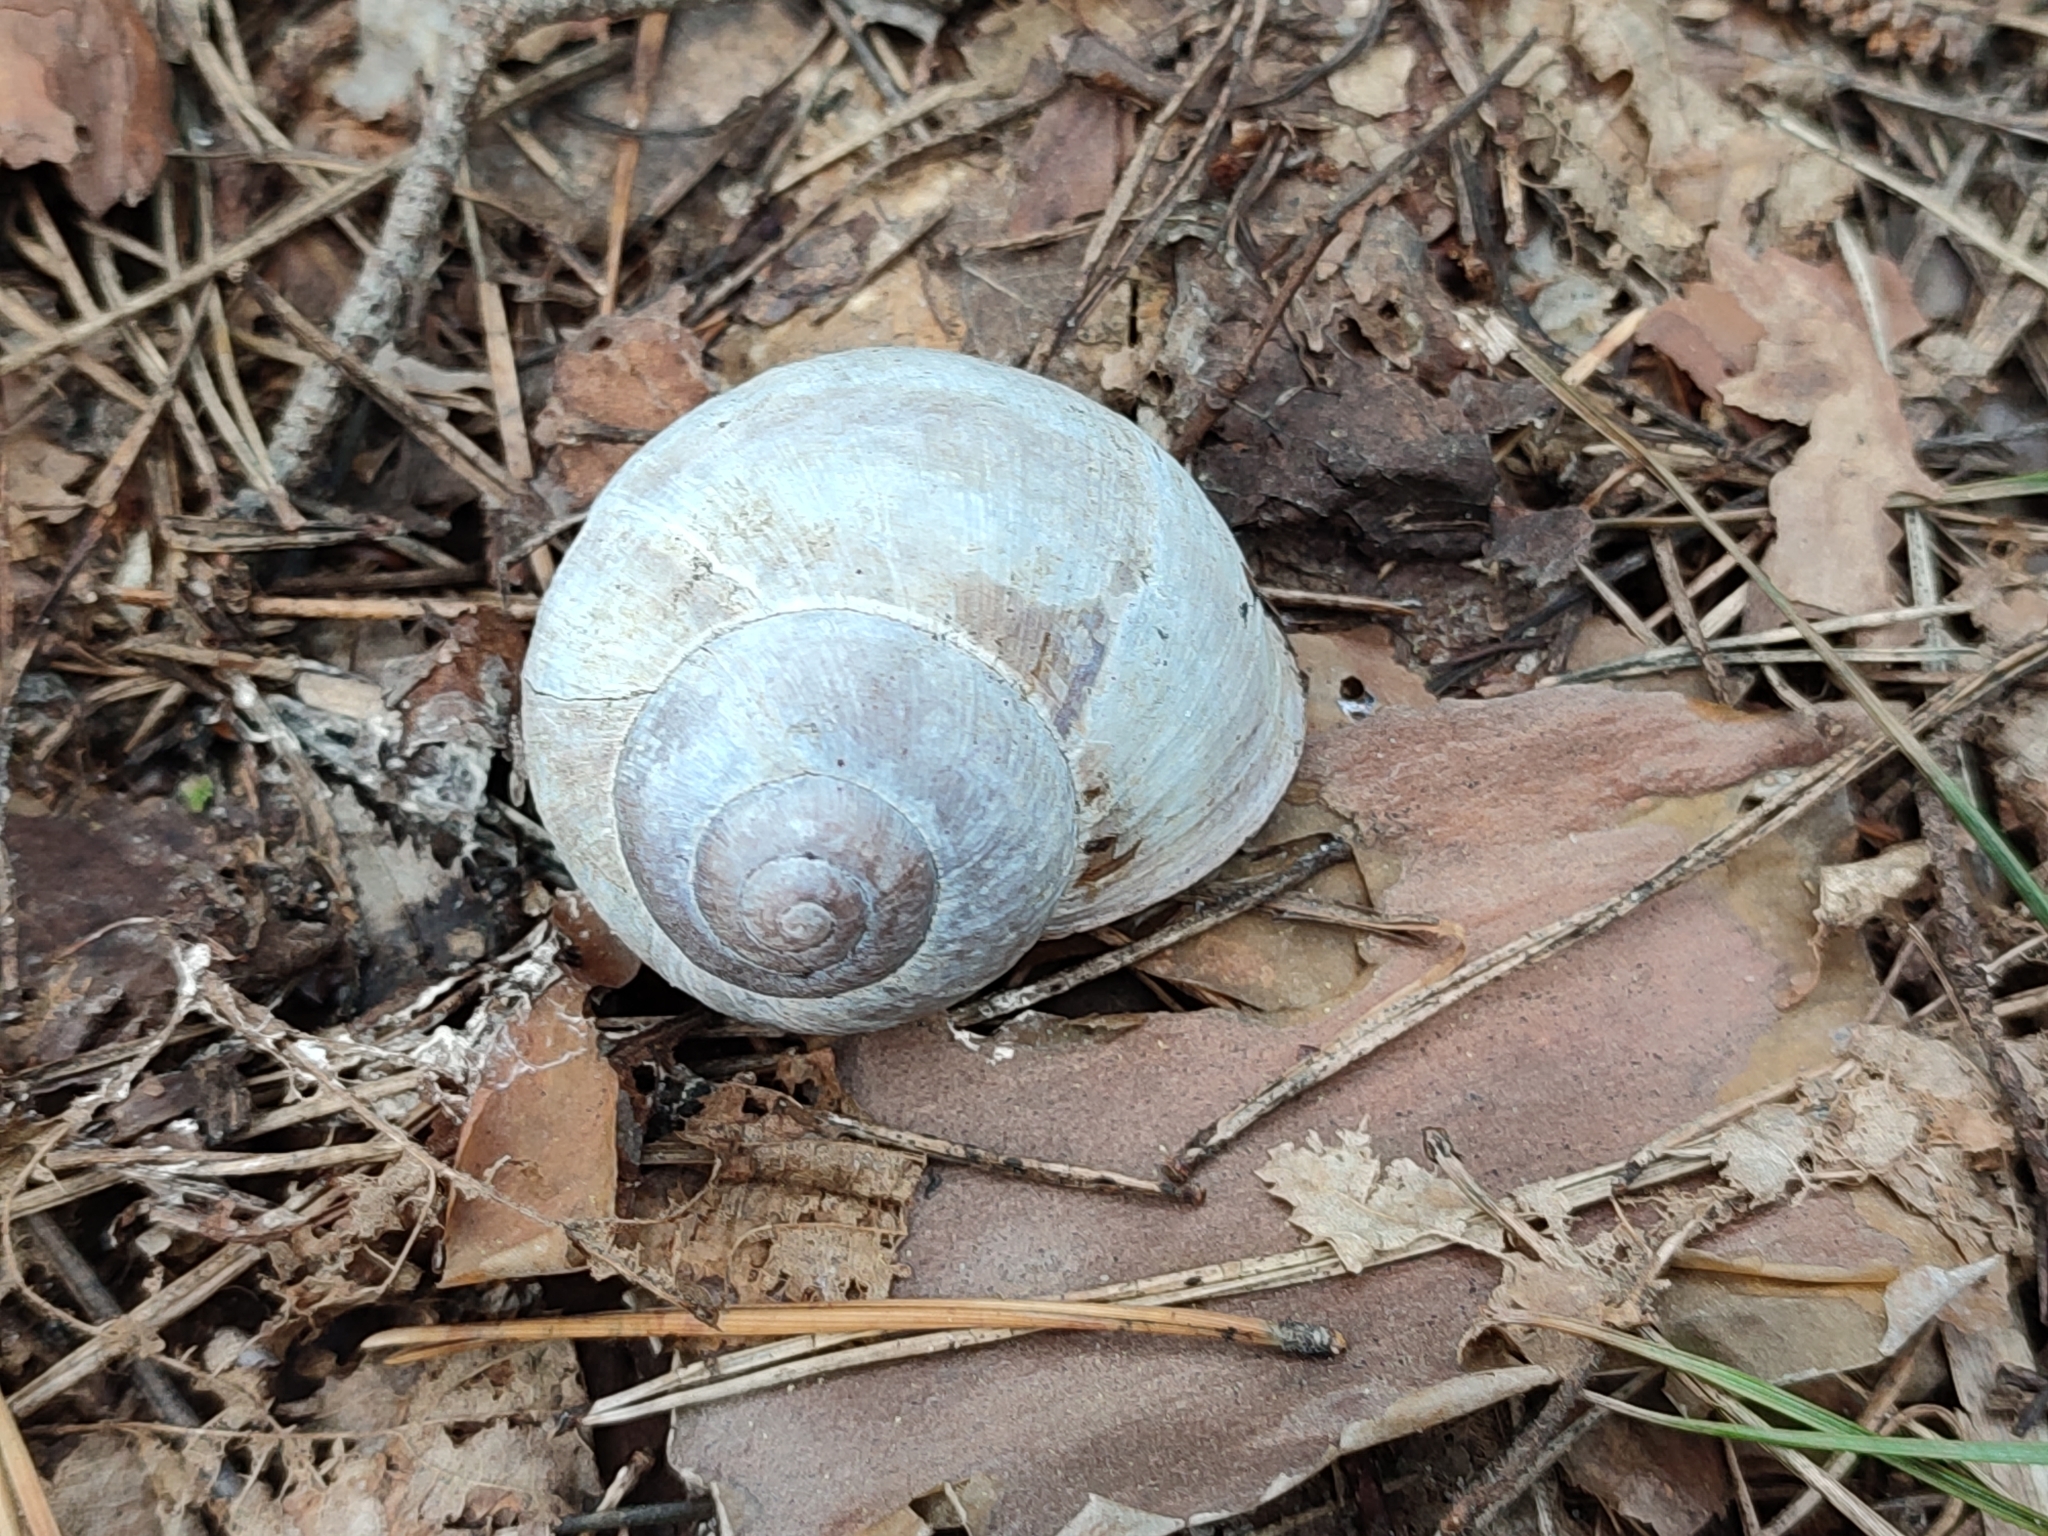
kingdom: Animalia
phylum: Mollusca
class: Gastropoda
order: Stylommatophora
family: Helicidae
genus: Helix
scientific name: Helix pomatia
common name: Roman snail
